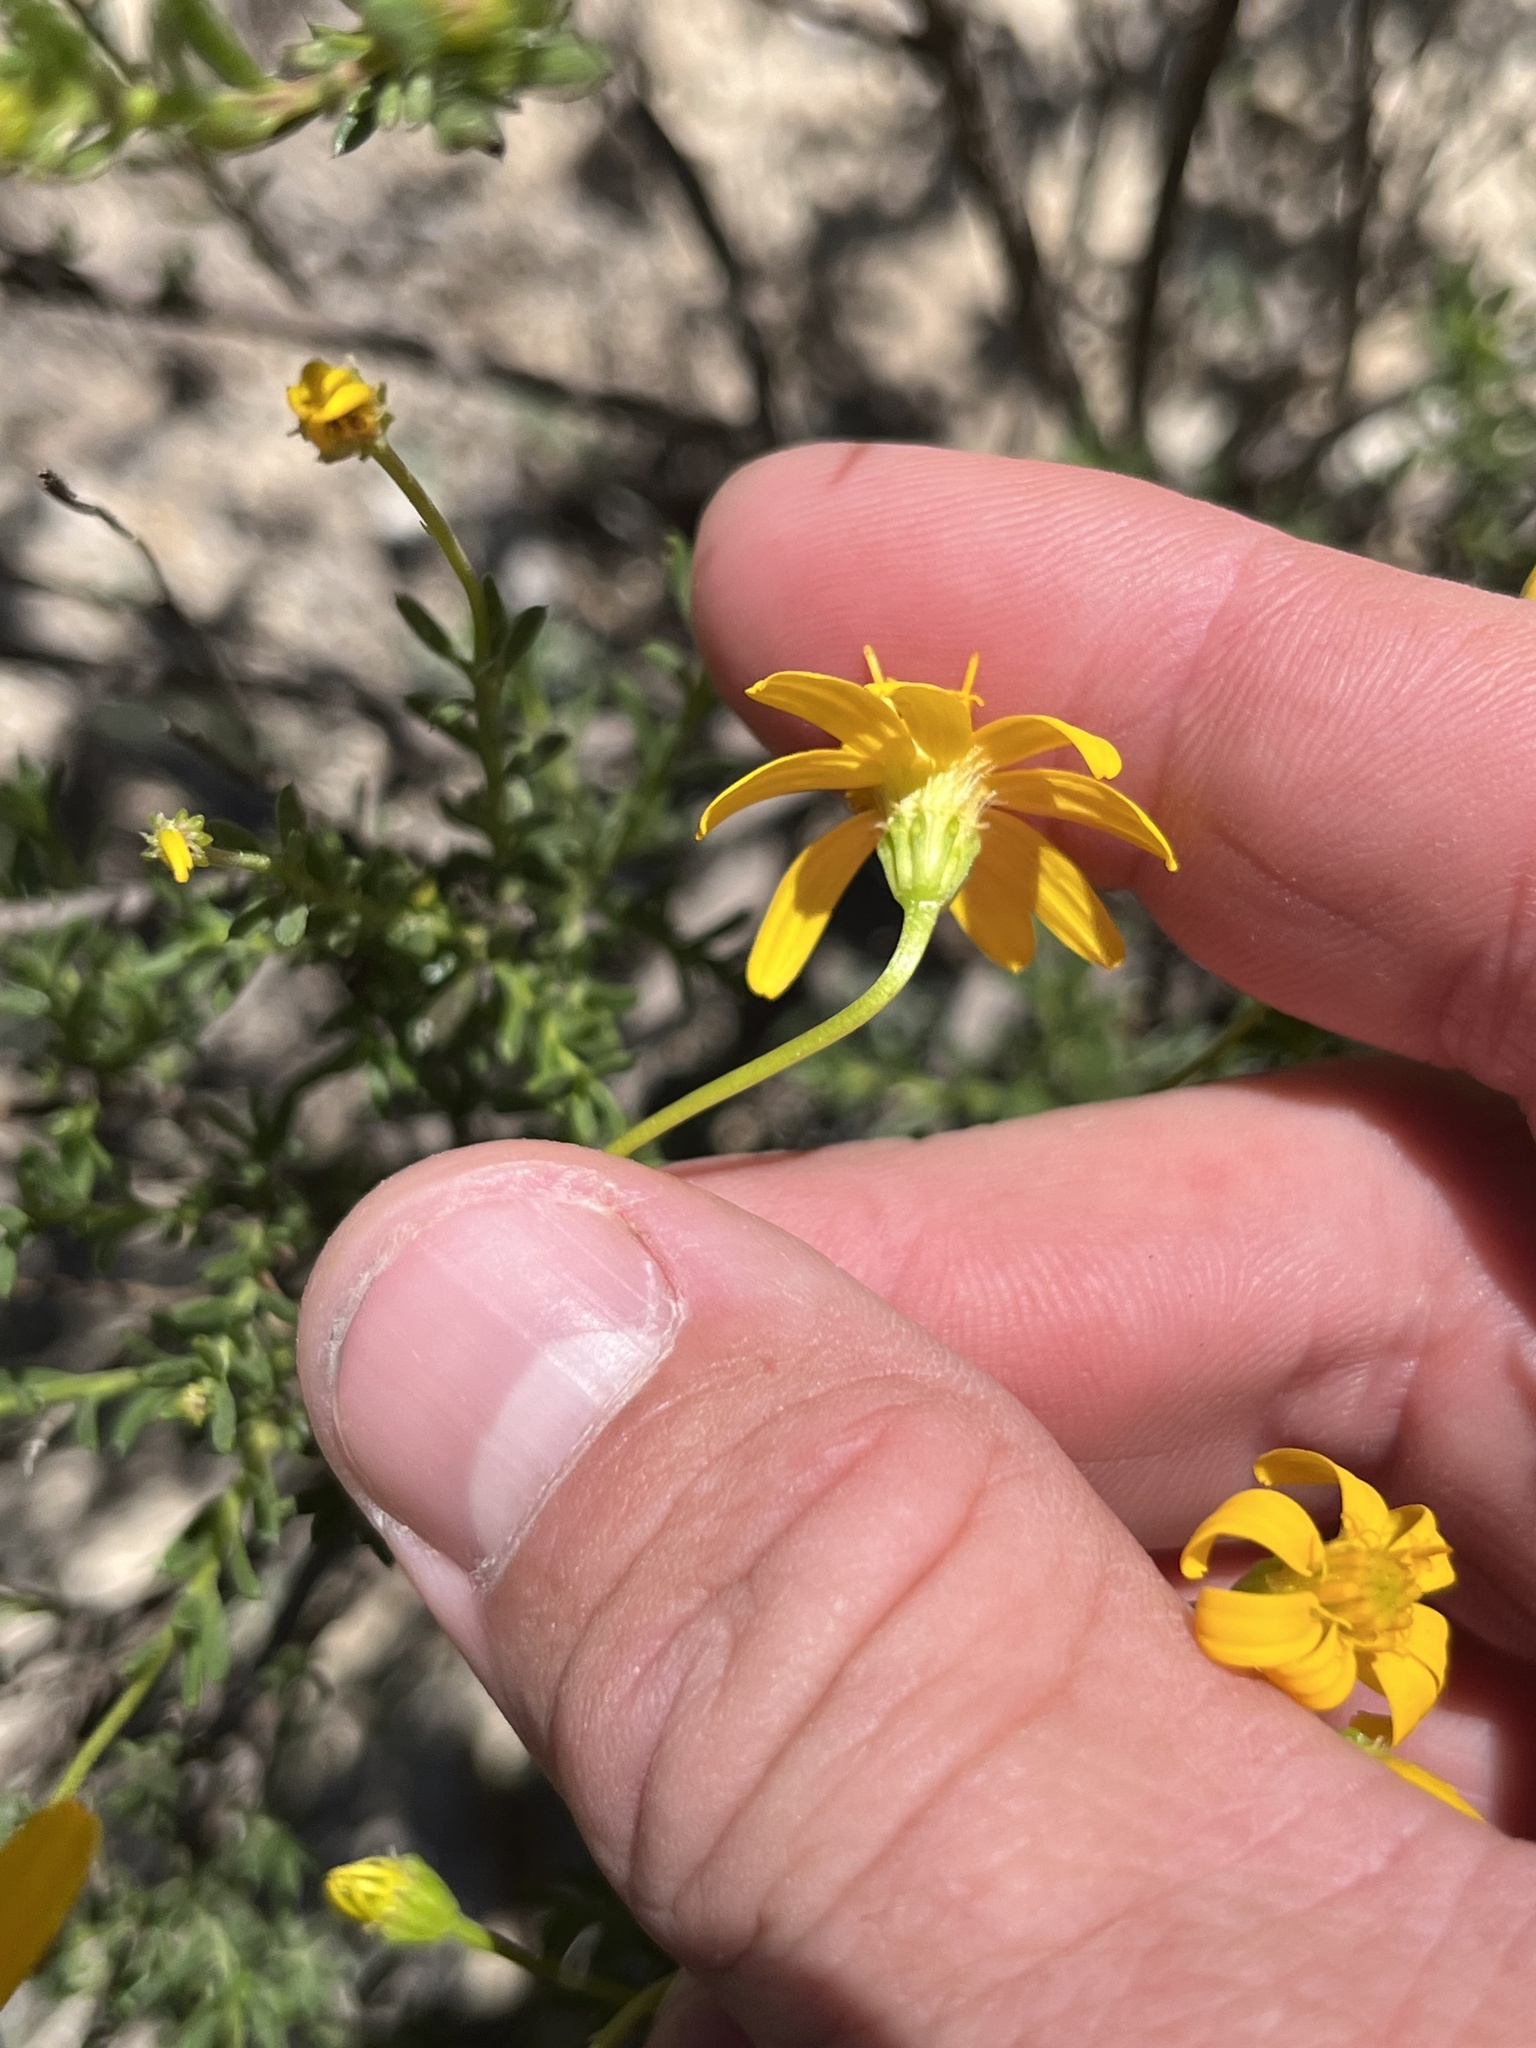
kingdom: Plantae
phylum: Tracheophyta
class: Magnoliopsida
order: Asterales
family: Asteraceae
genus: Chrysactinia
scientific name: Chrysactinia mexicana
